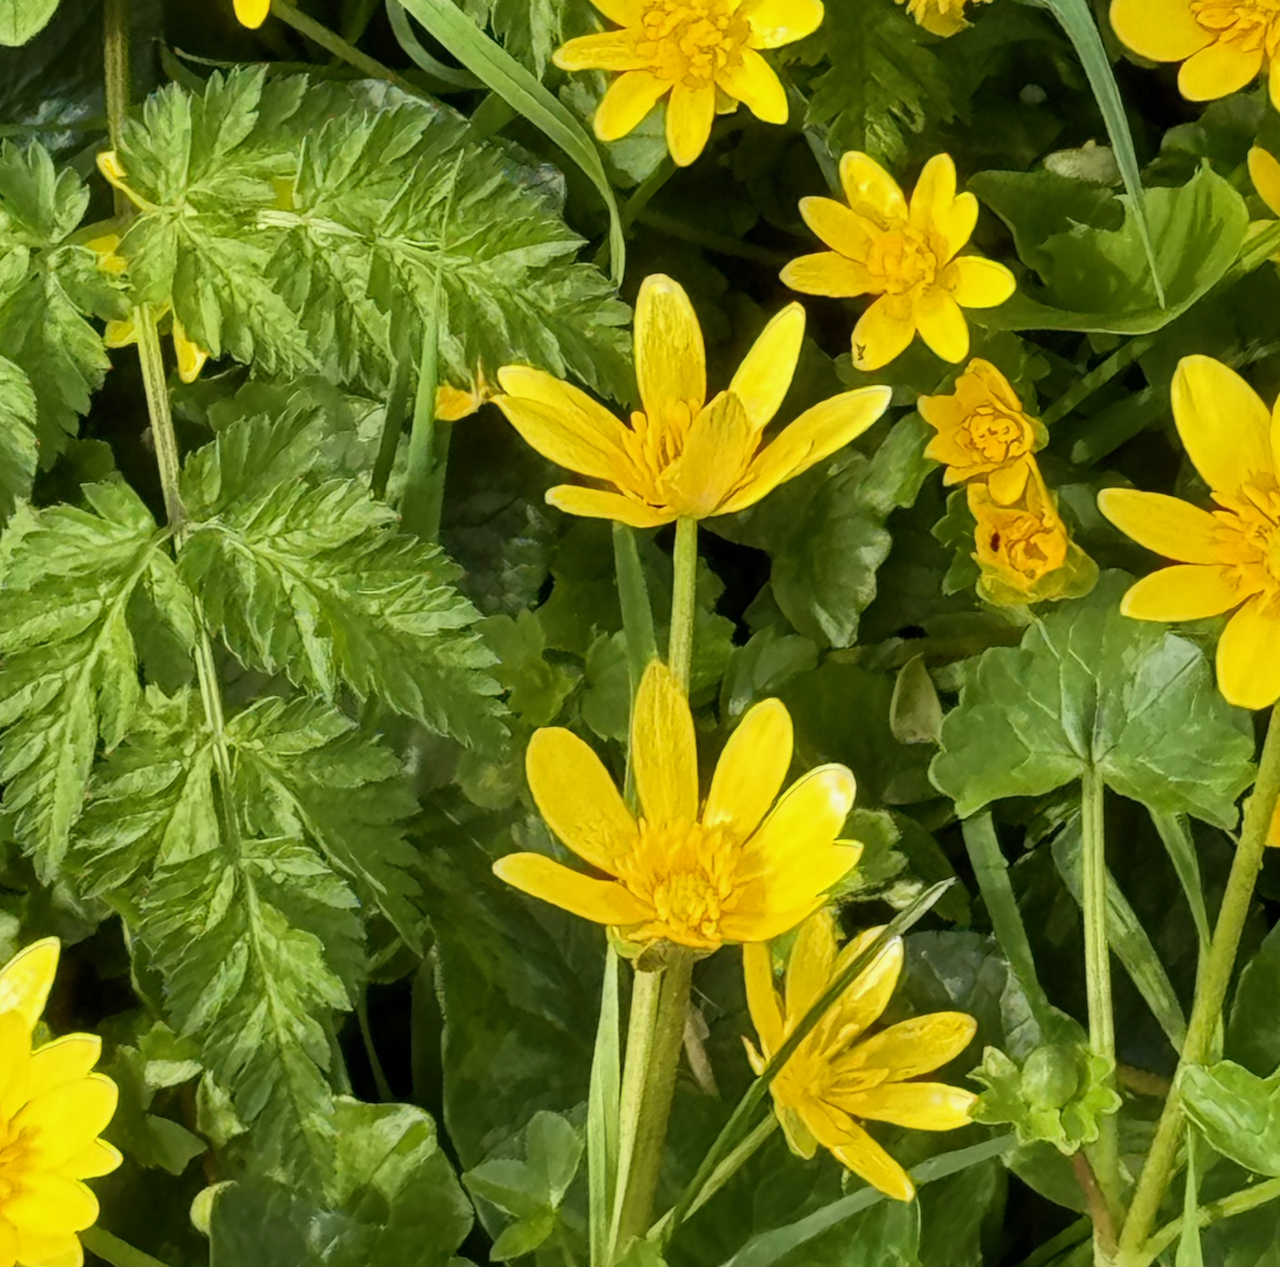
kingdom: Plantae
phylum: Tracheophyta
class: Magnoliopsida
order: Ranunculales
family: Ranunculaceae
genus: Ficaria
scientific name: Ficaria verna
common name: Lesser celandine
